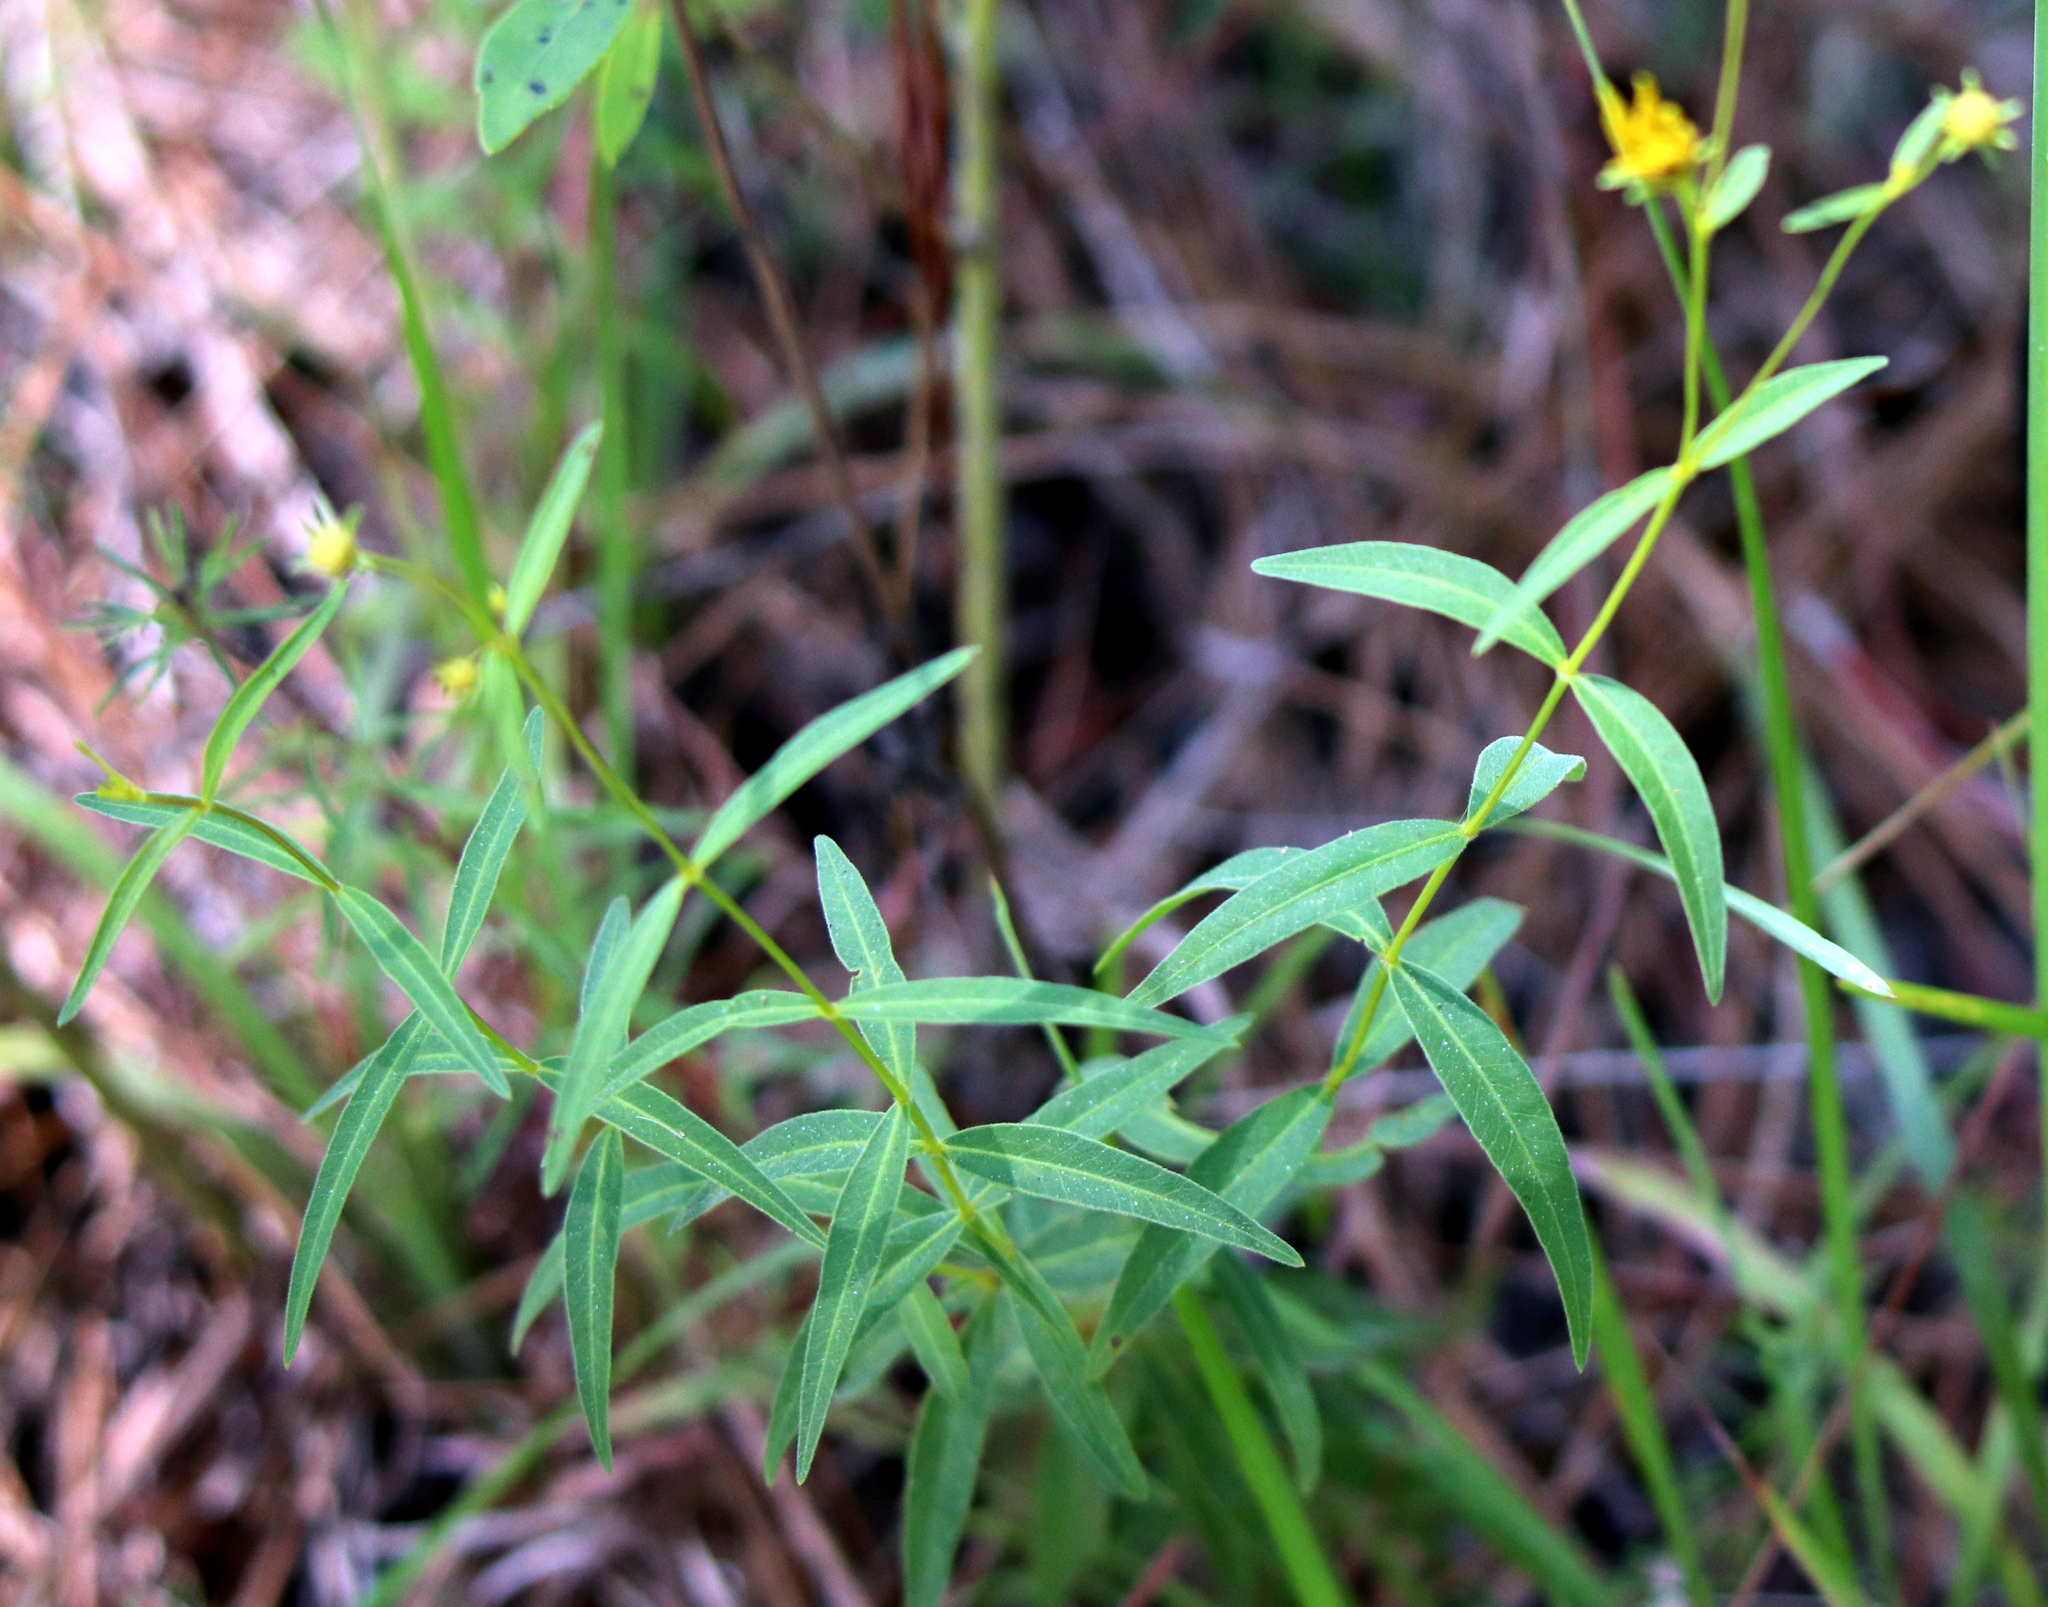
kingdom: Plantae
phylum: Tracheophyta
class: Magnoliopsida
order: Asterales
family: Asteraceae
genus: Coreopsis
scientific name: Coreopsis major
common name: Forest tickseed
